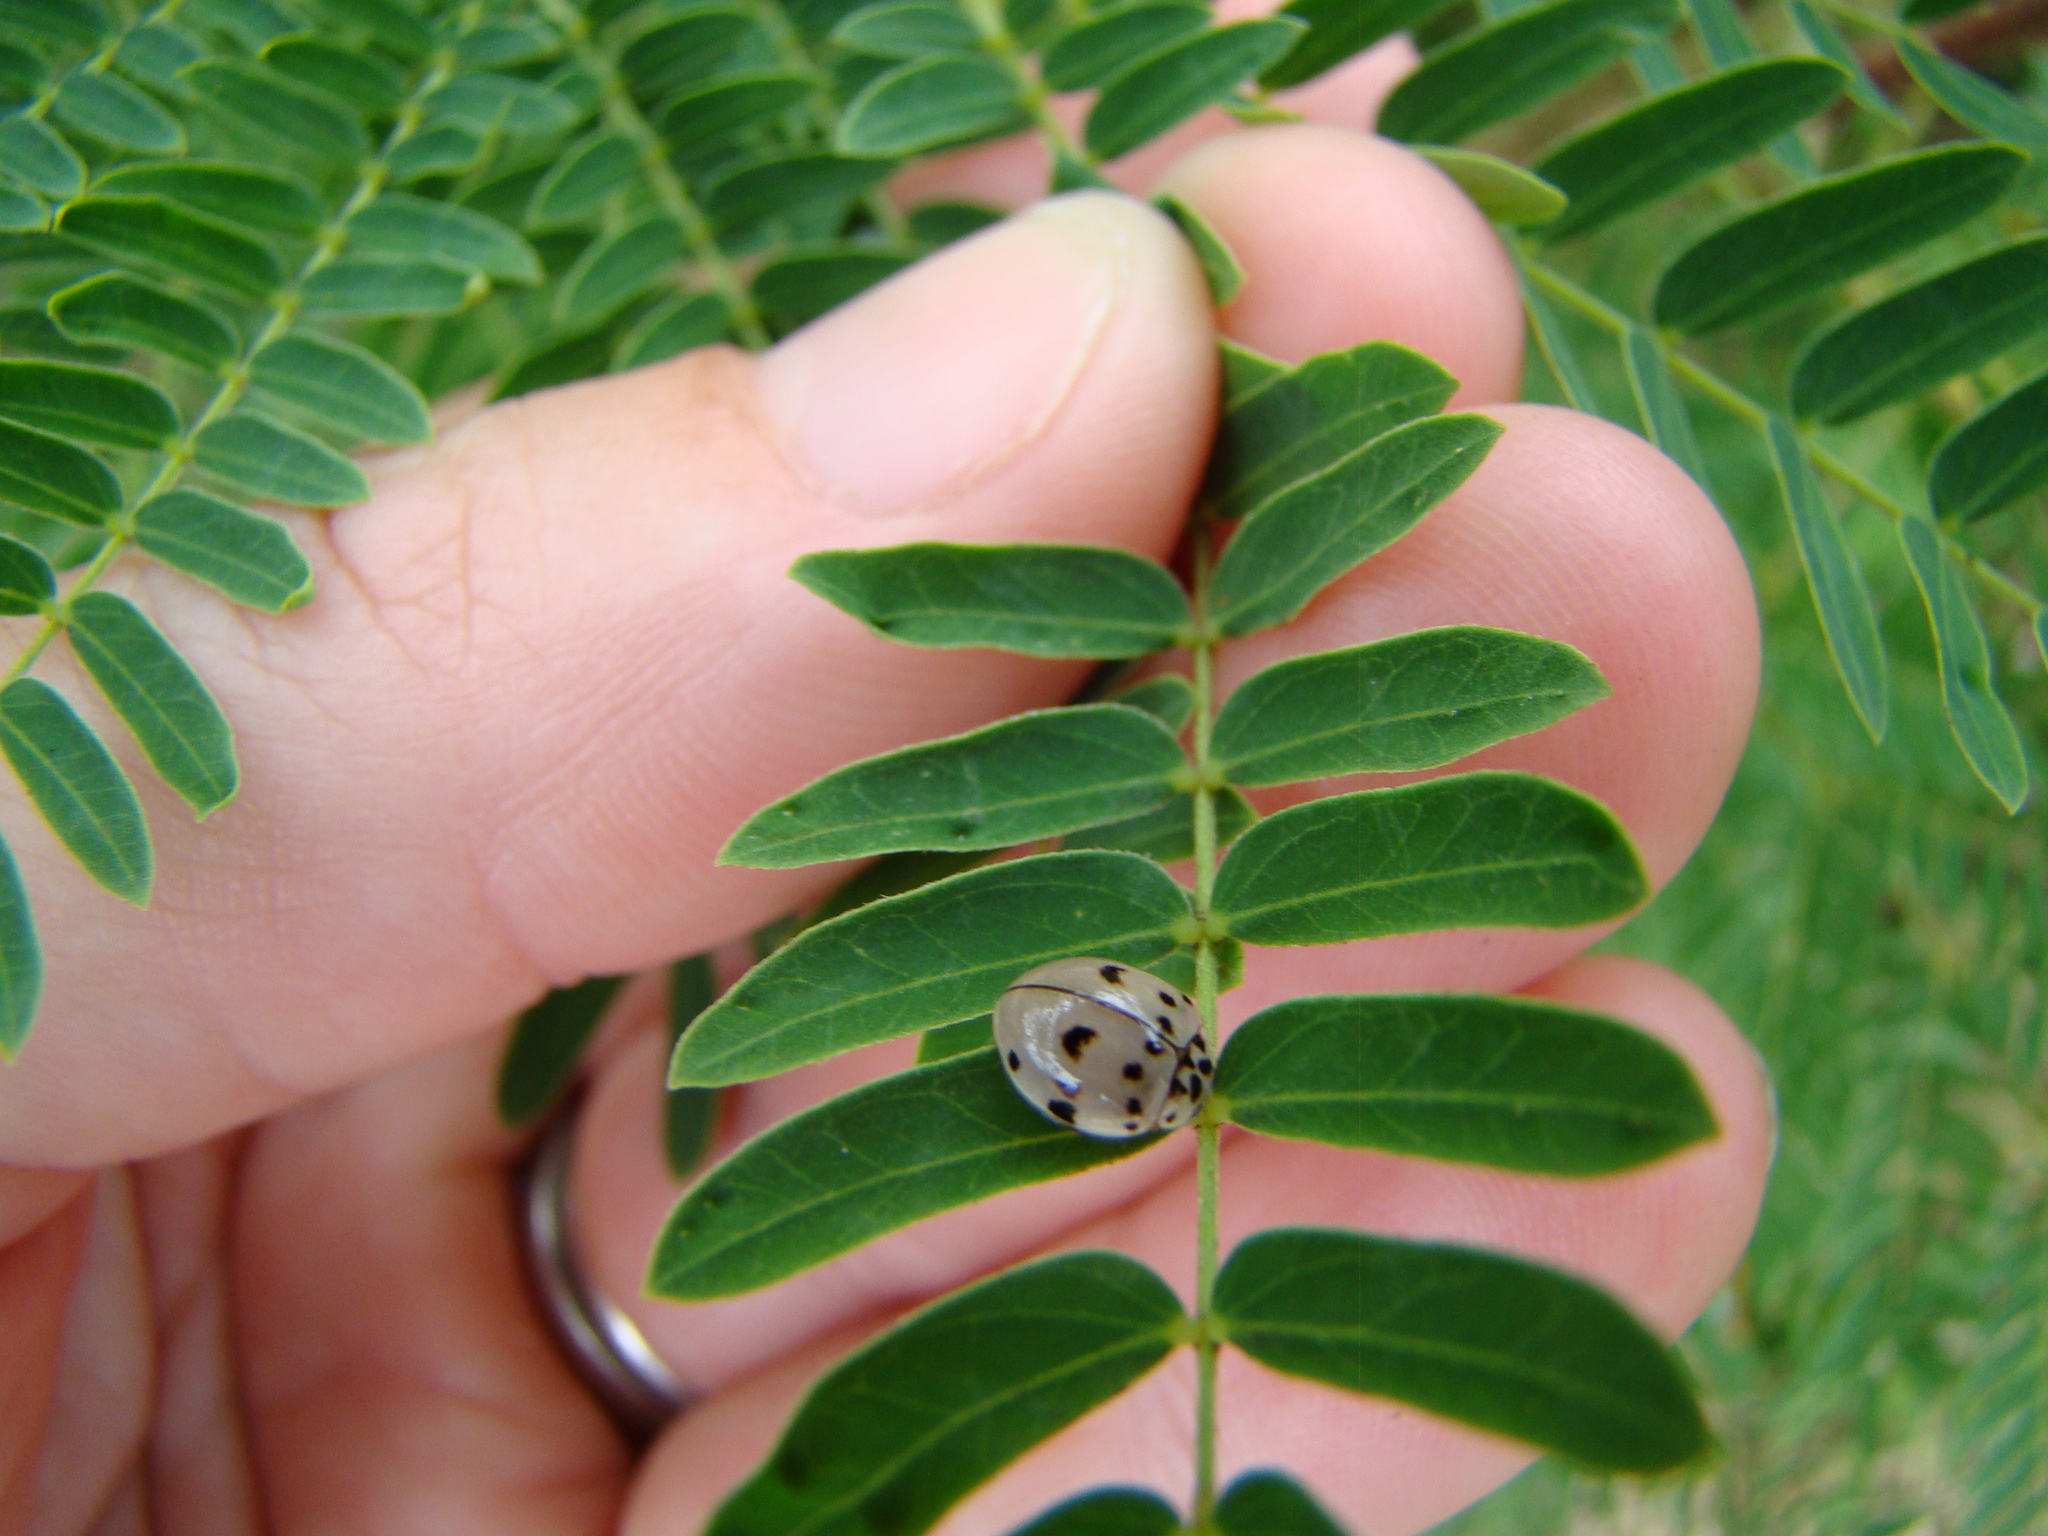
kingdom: Animalia
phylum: Arthropoda
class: Insecta
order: Coleoptera
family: Coccinellidae
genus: Olla
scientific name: Olla v-nigrum
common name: Ashy gray lady beetle
